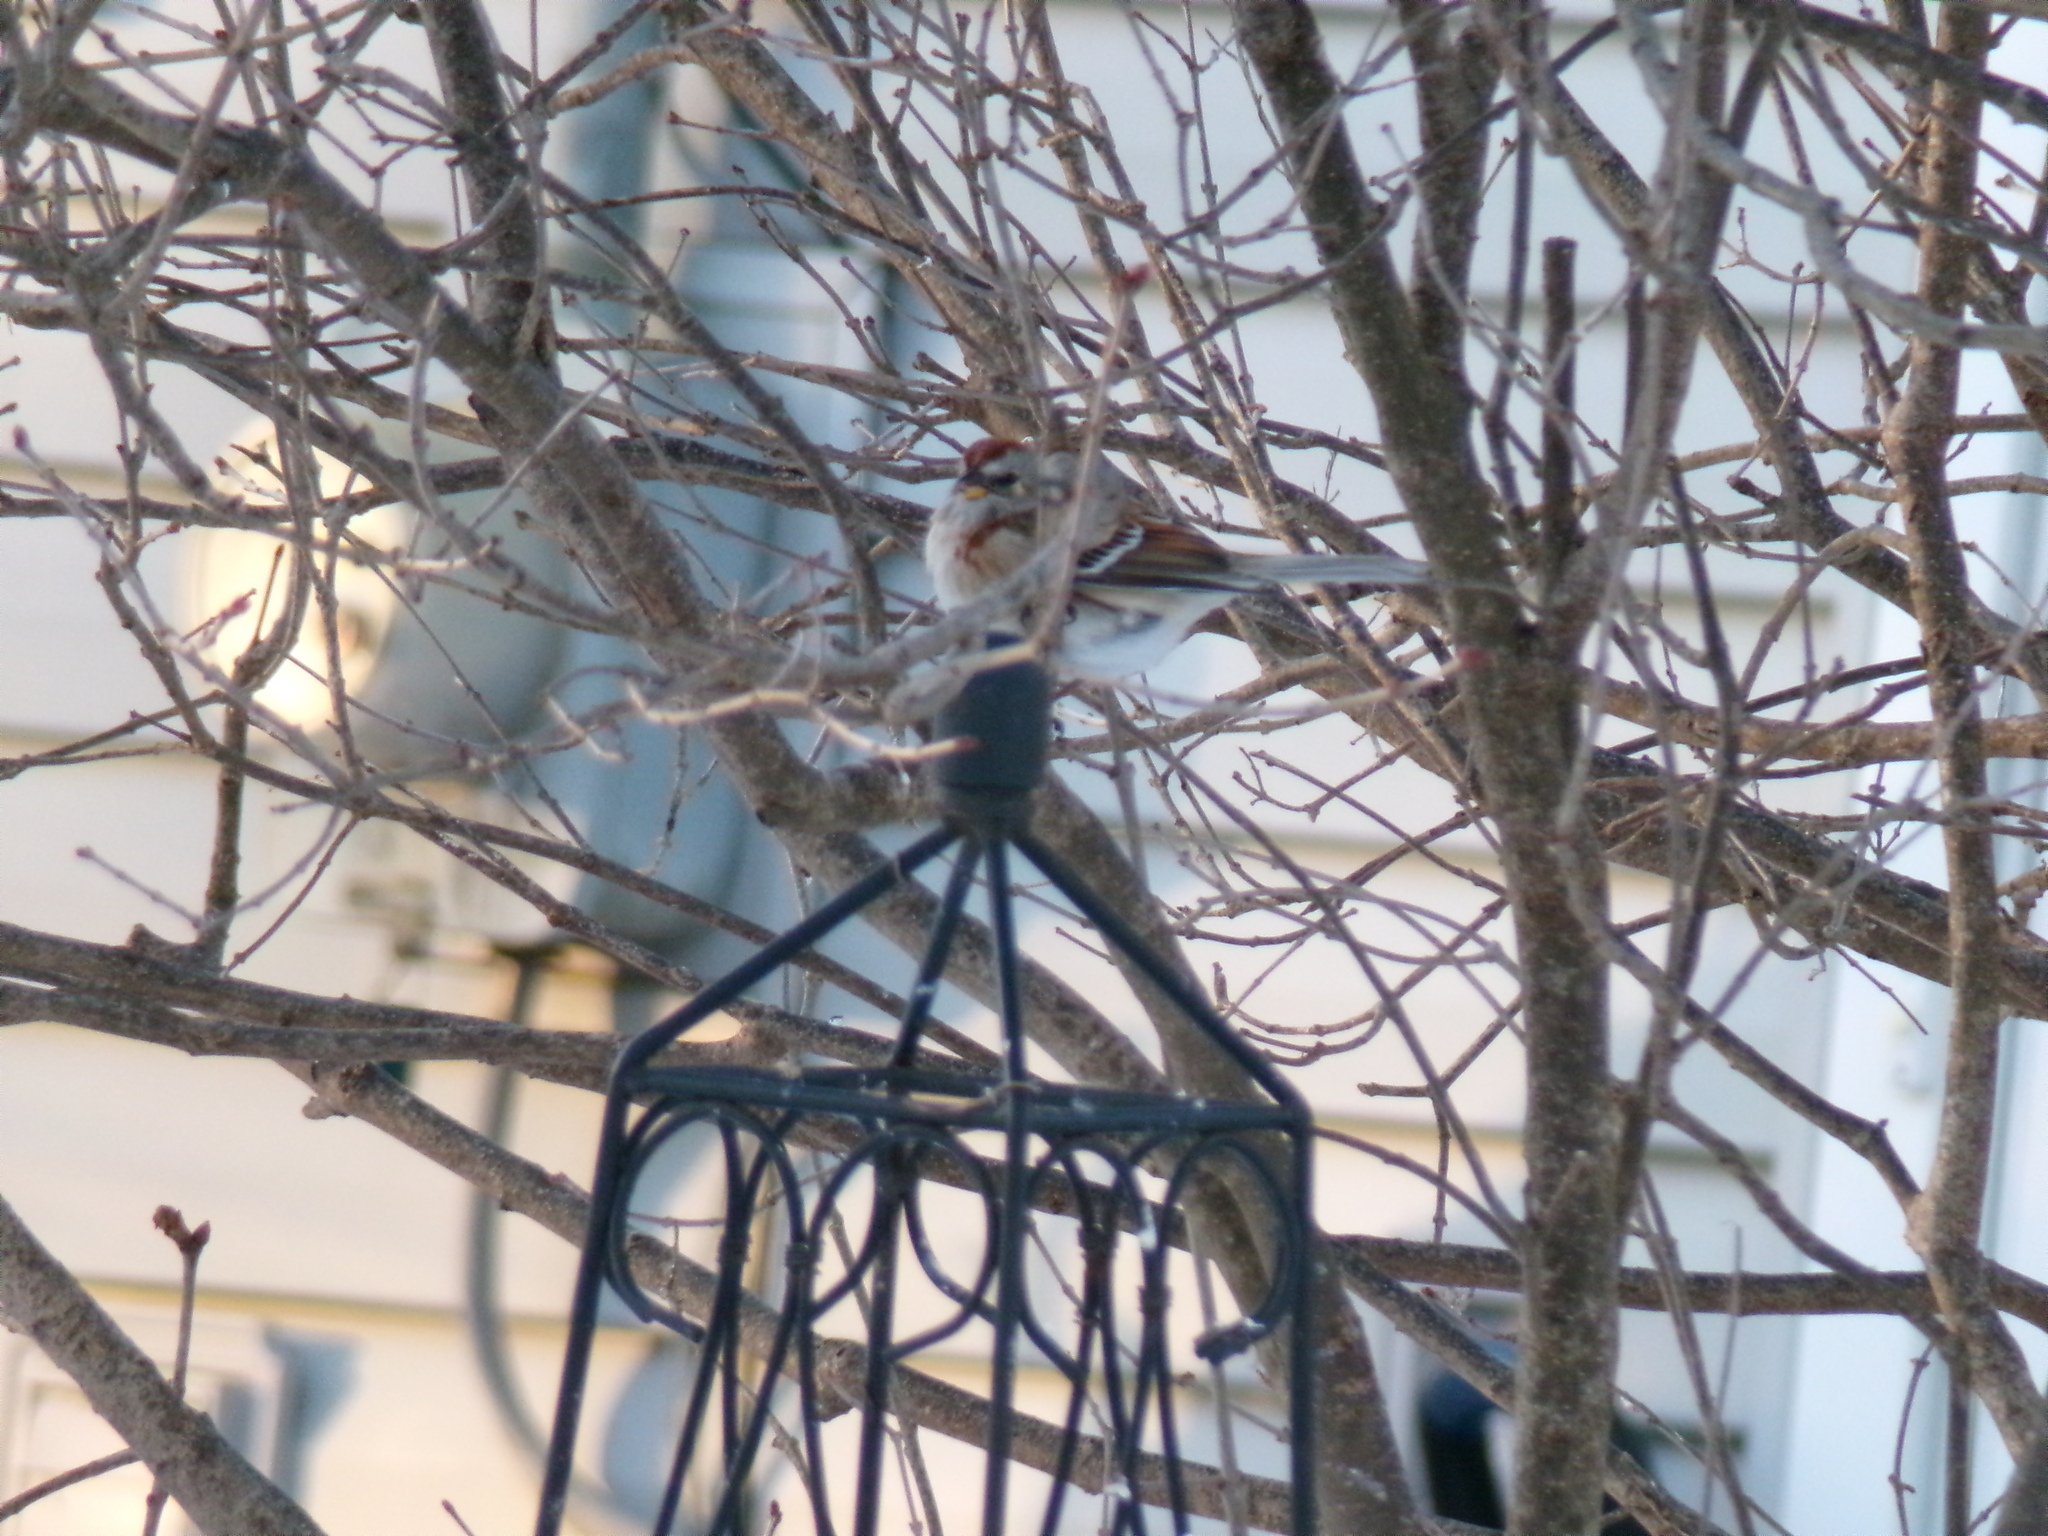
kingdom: Animalia
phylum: Chordata
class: Aves
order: Passeriformes
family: Passerellidae
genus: Spizelloides
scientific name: Spizelloides arborea
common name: American tree sparrow
